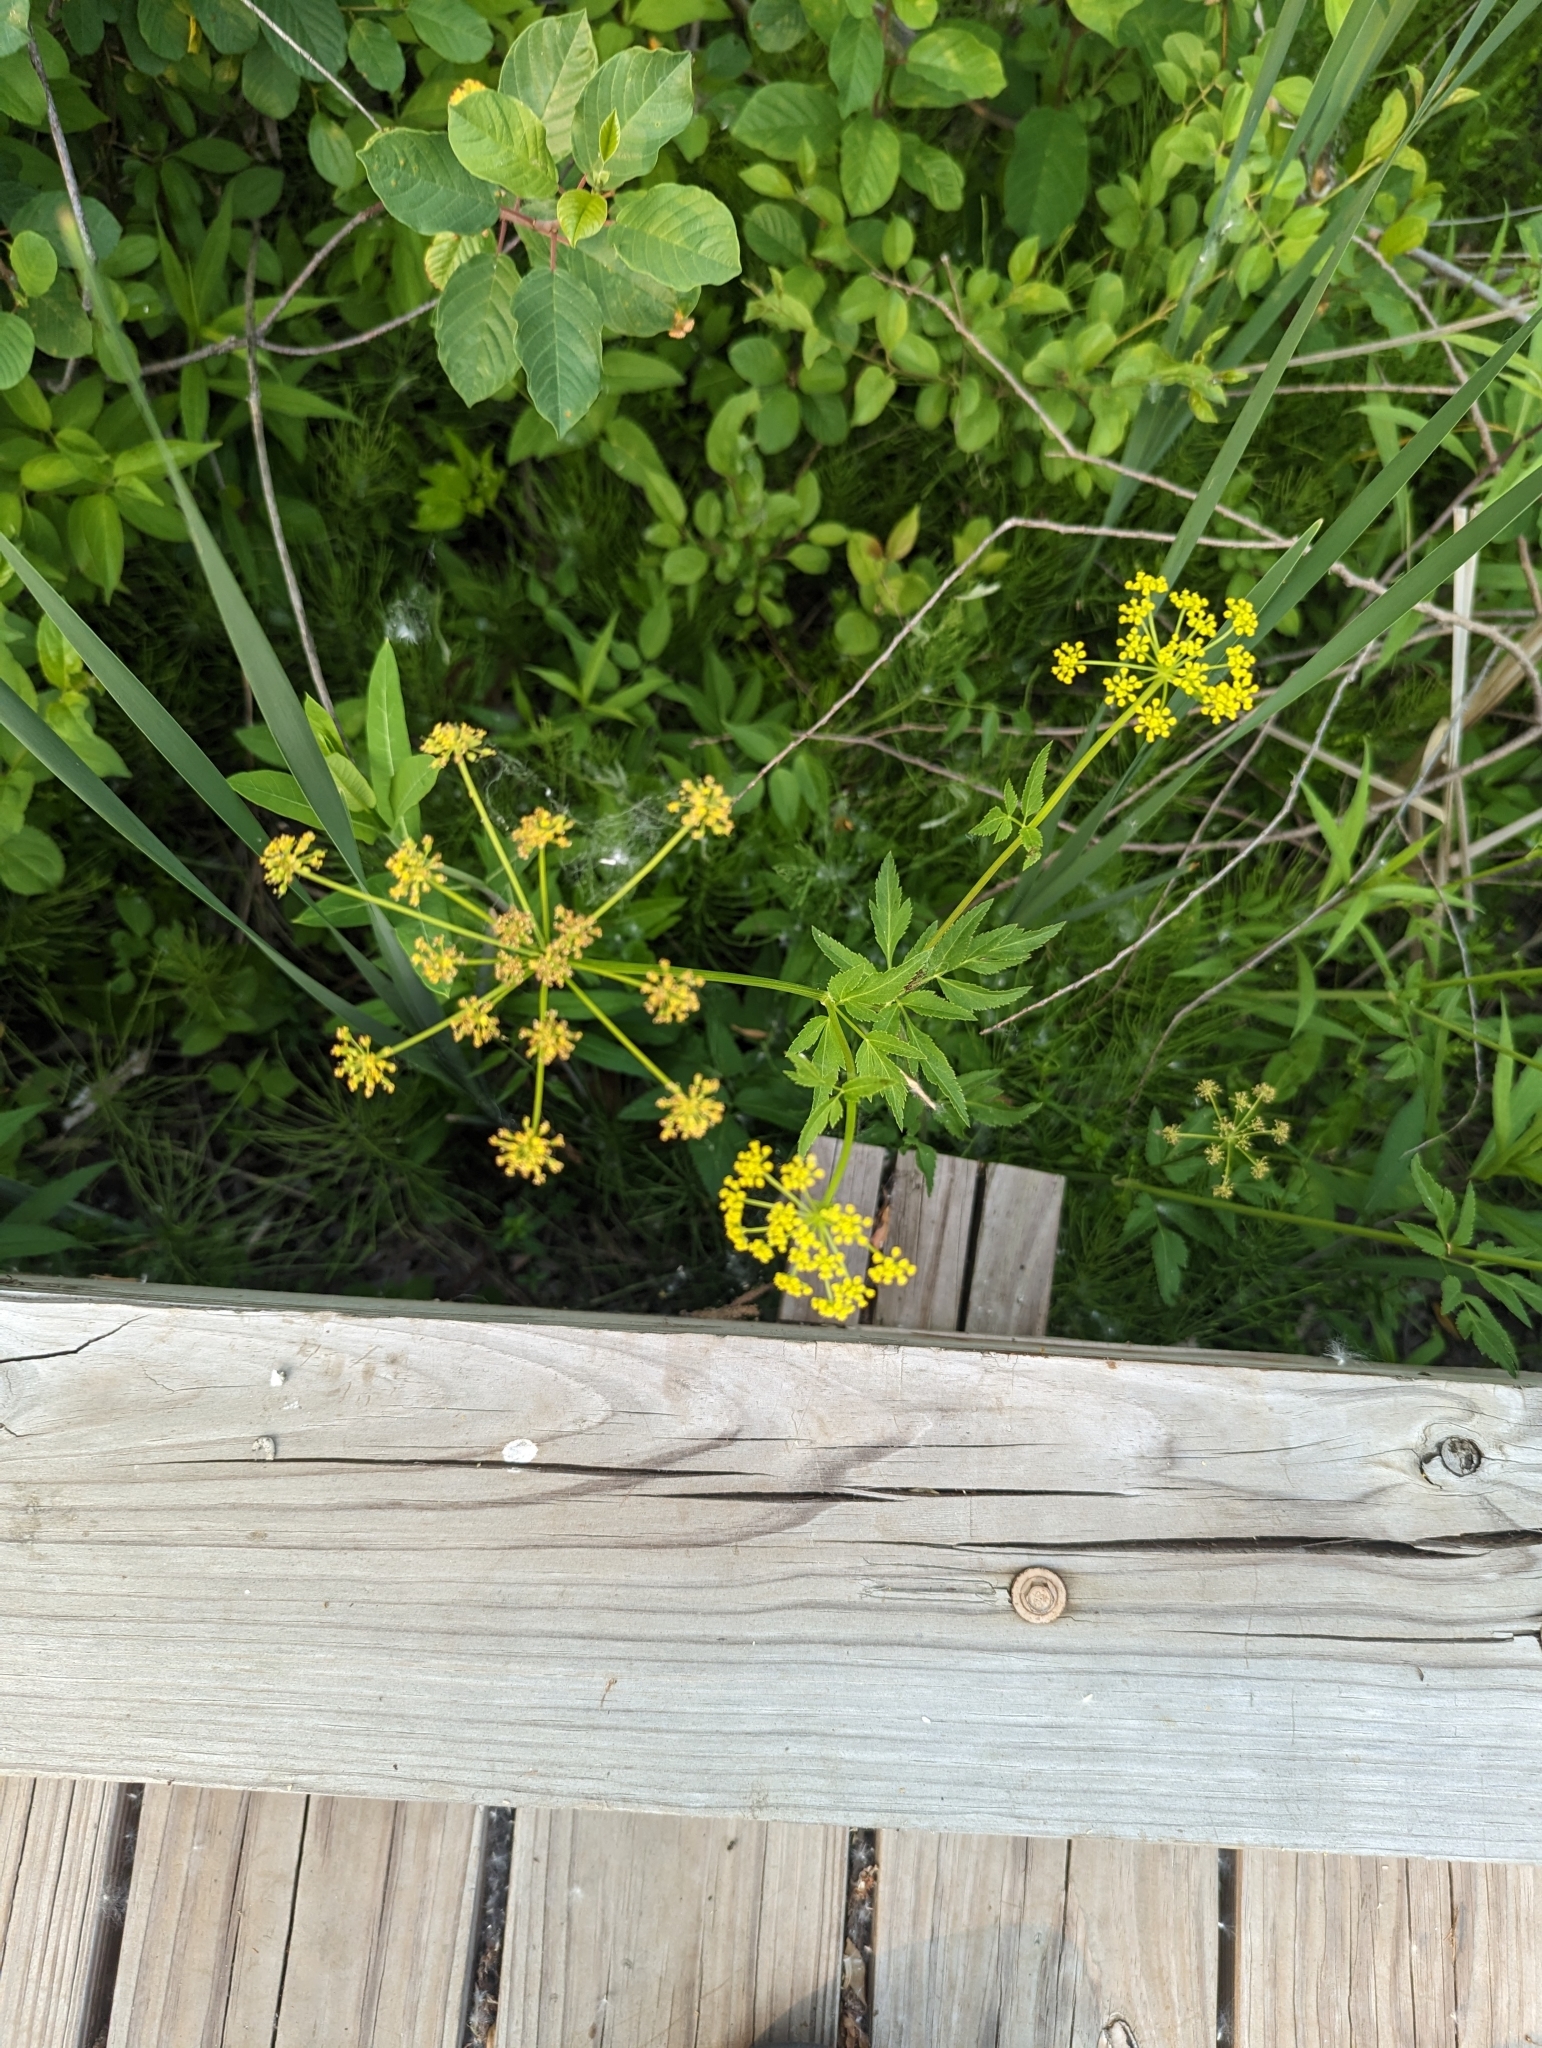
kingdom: Plantae
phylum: Tracheophyta
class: Magnoliopsida
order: Apiales
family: Apiaceae
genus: Zizia
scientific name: Zizia aurea
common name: Golden alexanders
